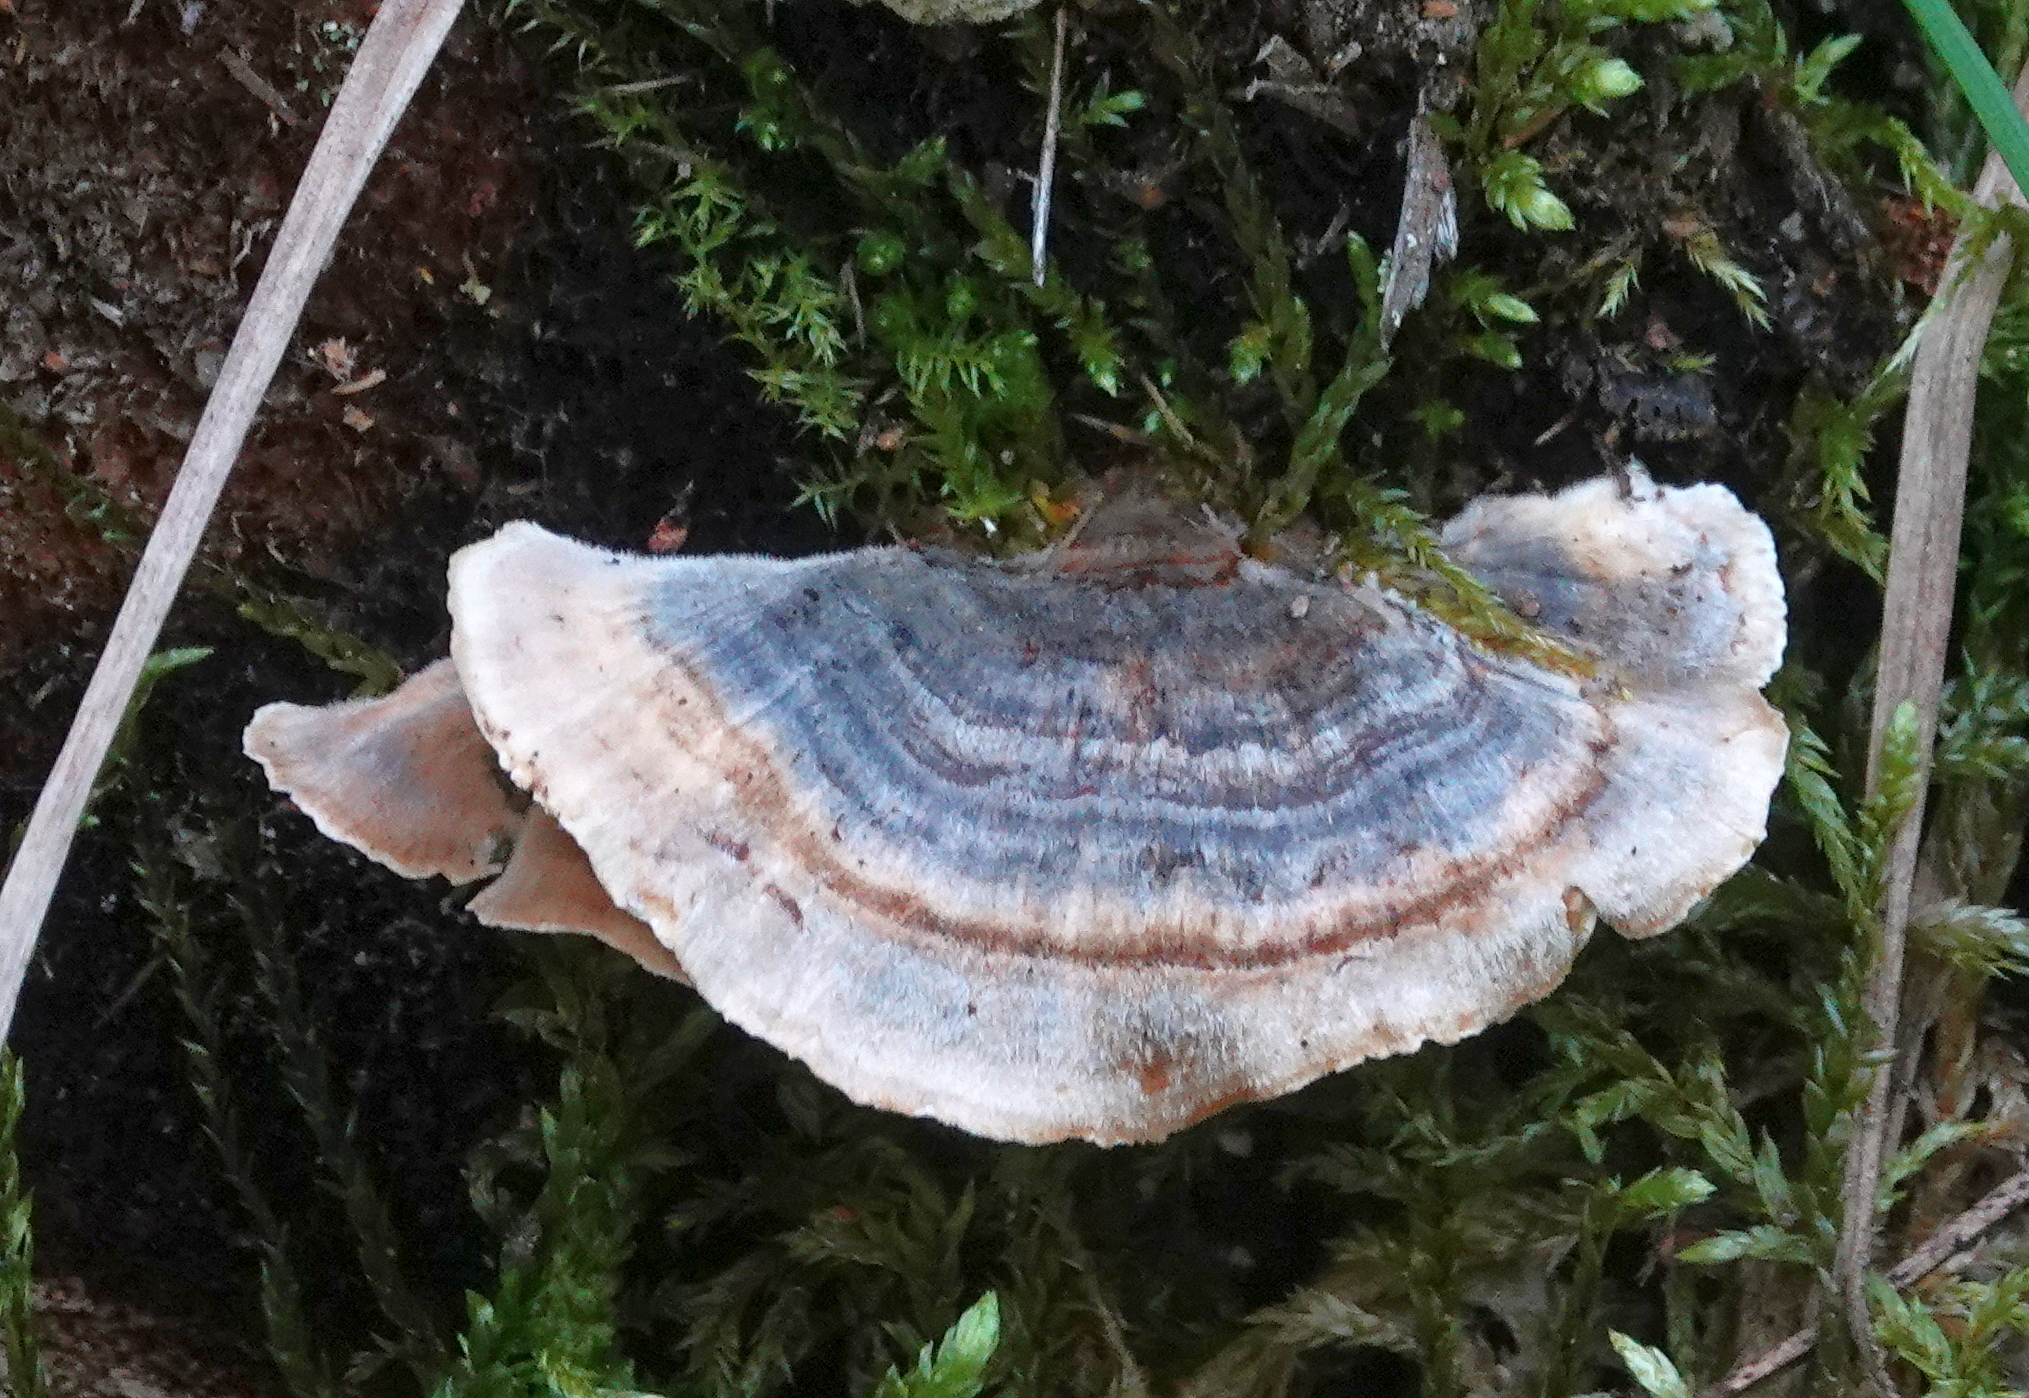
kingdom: Fungi
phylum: Basidiomycota
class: Agaricomycetes
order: Polyporales
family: Polyporaceae
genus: Trametes
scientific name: Trametes versicolor
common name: Turkeytail
